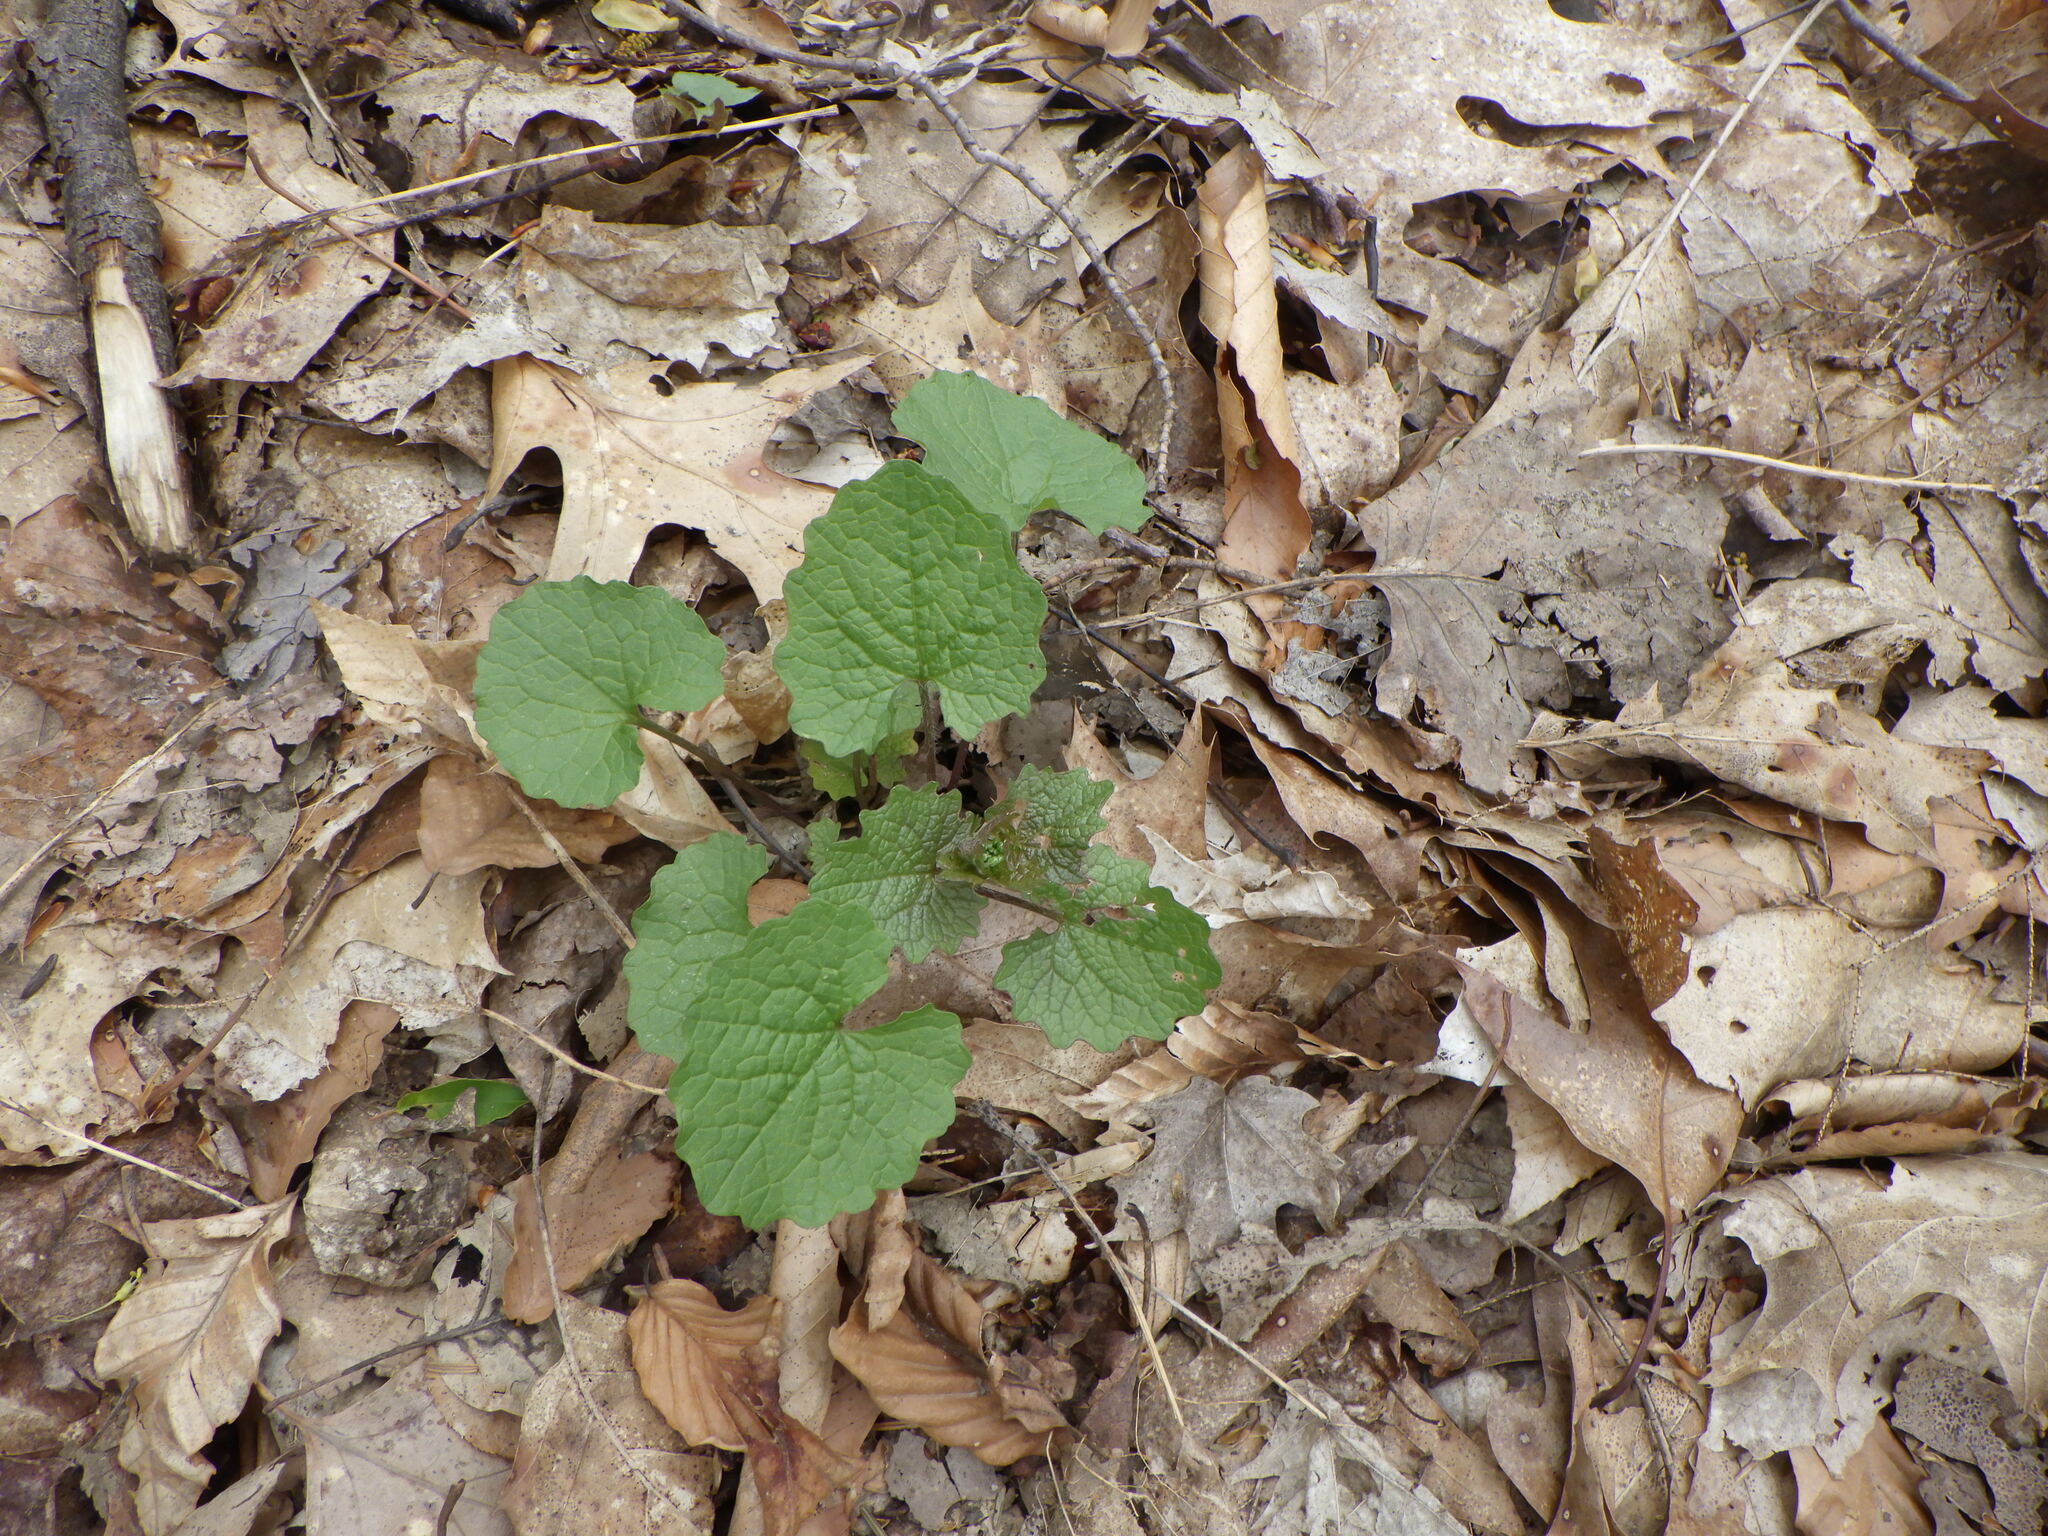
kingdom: Plantae
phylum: Tracheophyta
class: Magnoliopsida
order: Brassicales
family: Brassicaceae
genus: Alliaria
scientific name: Alliaria petiolata
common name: Garlic mustard
